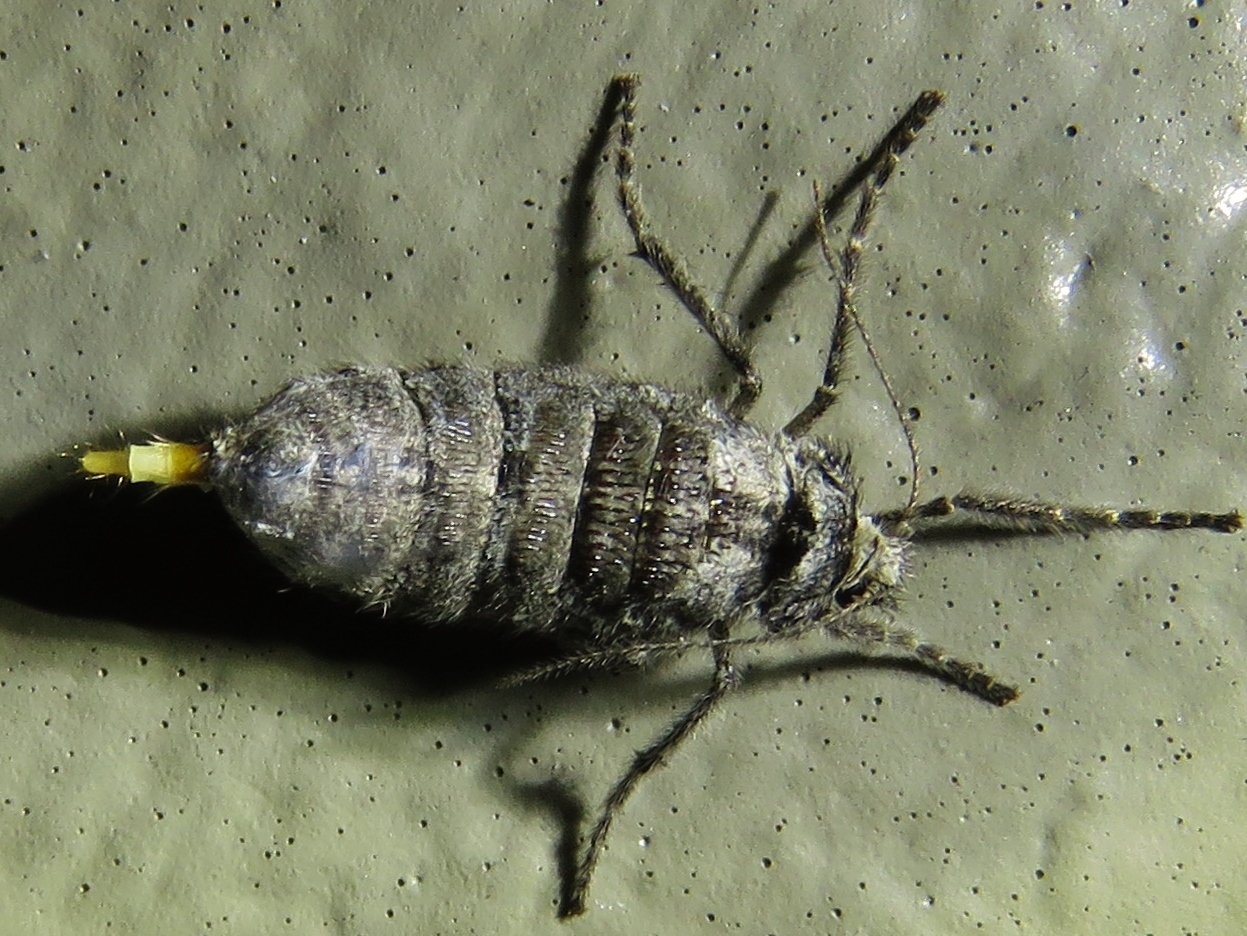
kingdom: Animalia
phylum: Arthropoda
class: Insecta
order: Lepidoptera
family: Geometridae
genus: Paleacrita
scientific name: Paleacrita vernata
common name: Spring cankerworm
